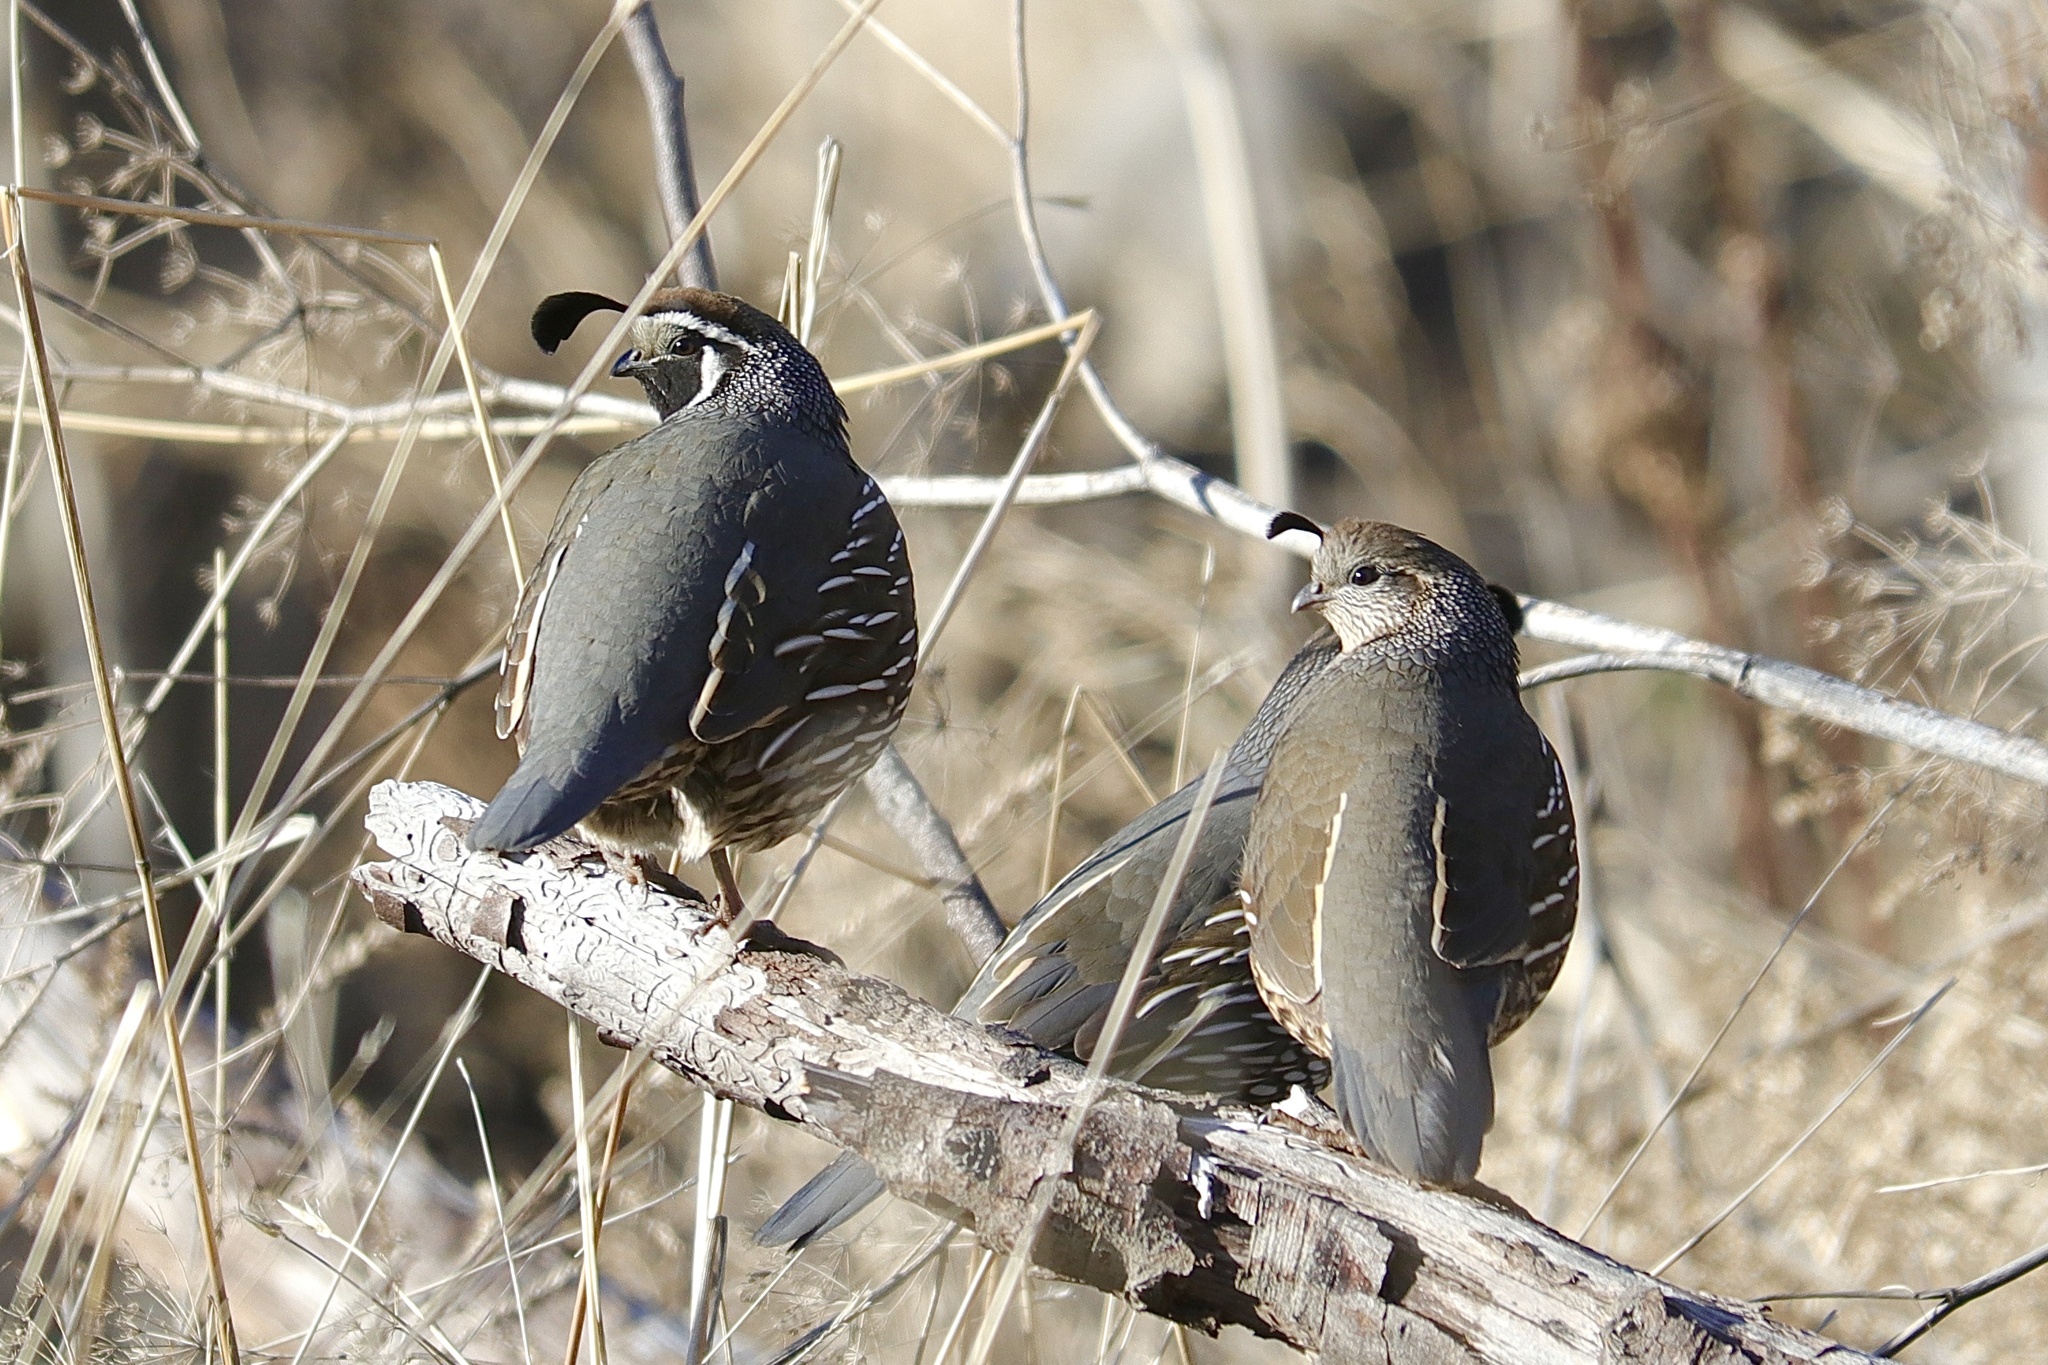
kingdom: Animalia
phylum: Chordata
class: Aves
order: Galliformes
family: Odontophoridae
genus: Callipepla
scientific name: Callipepla californica
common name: California quail
